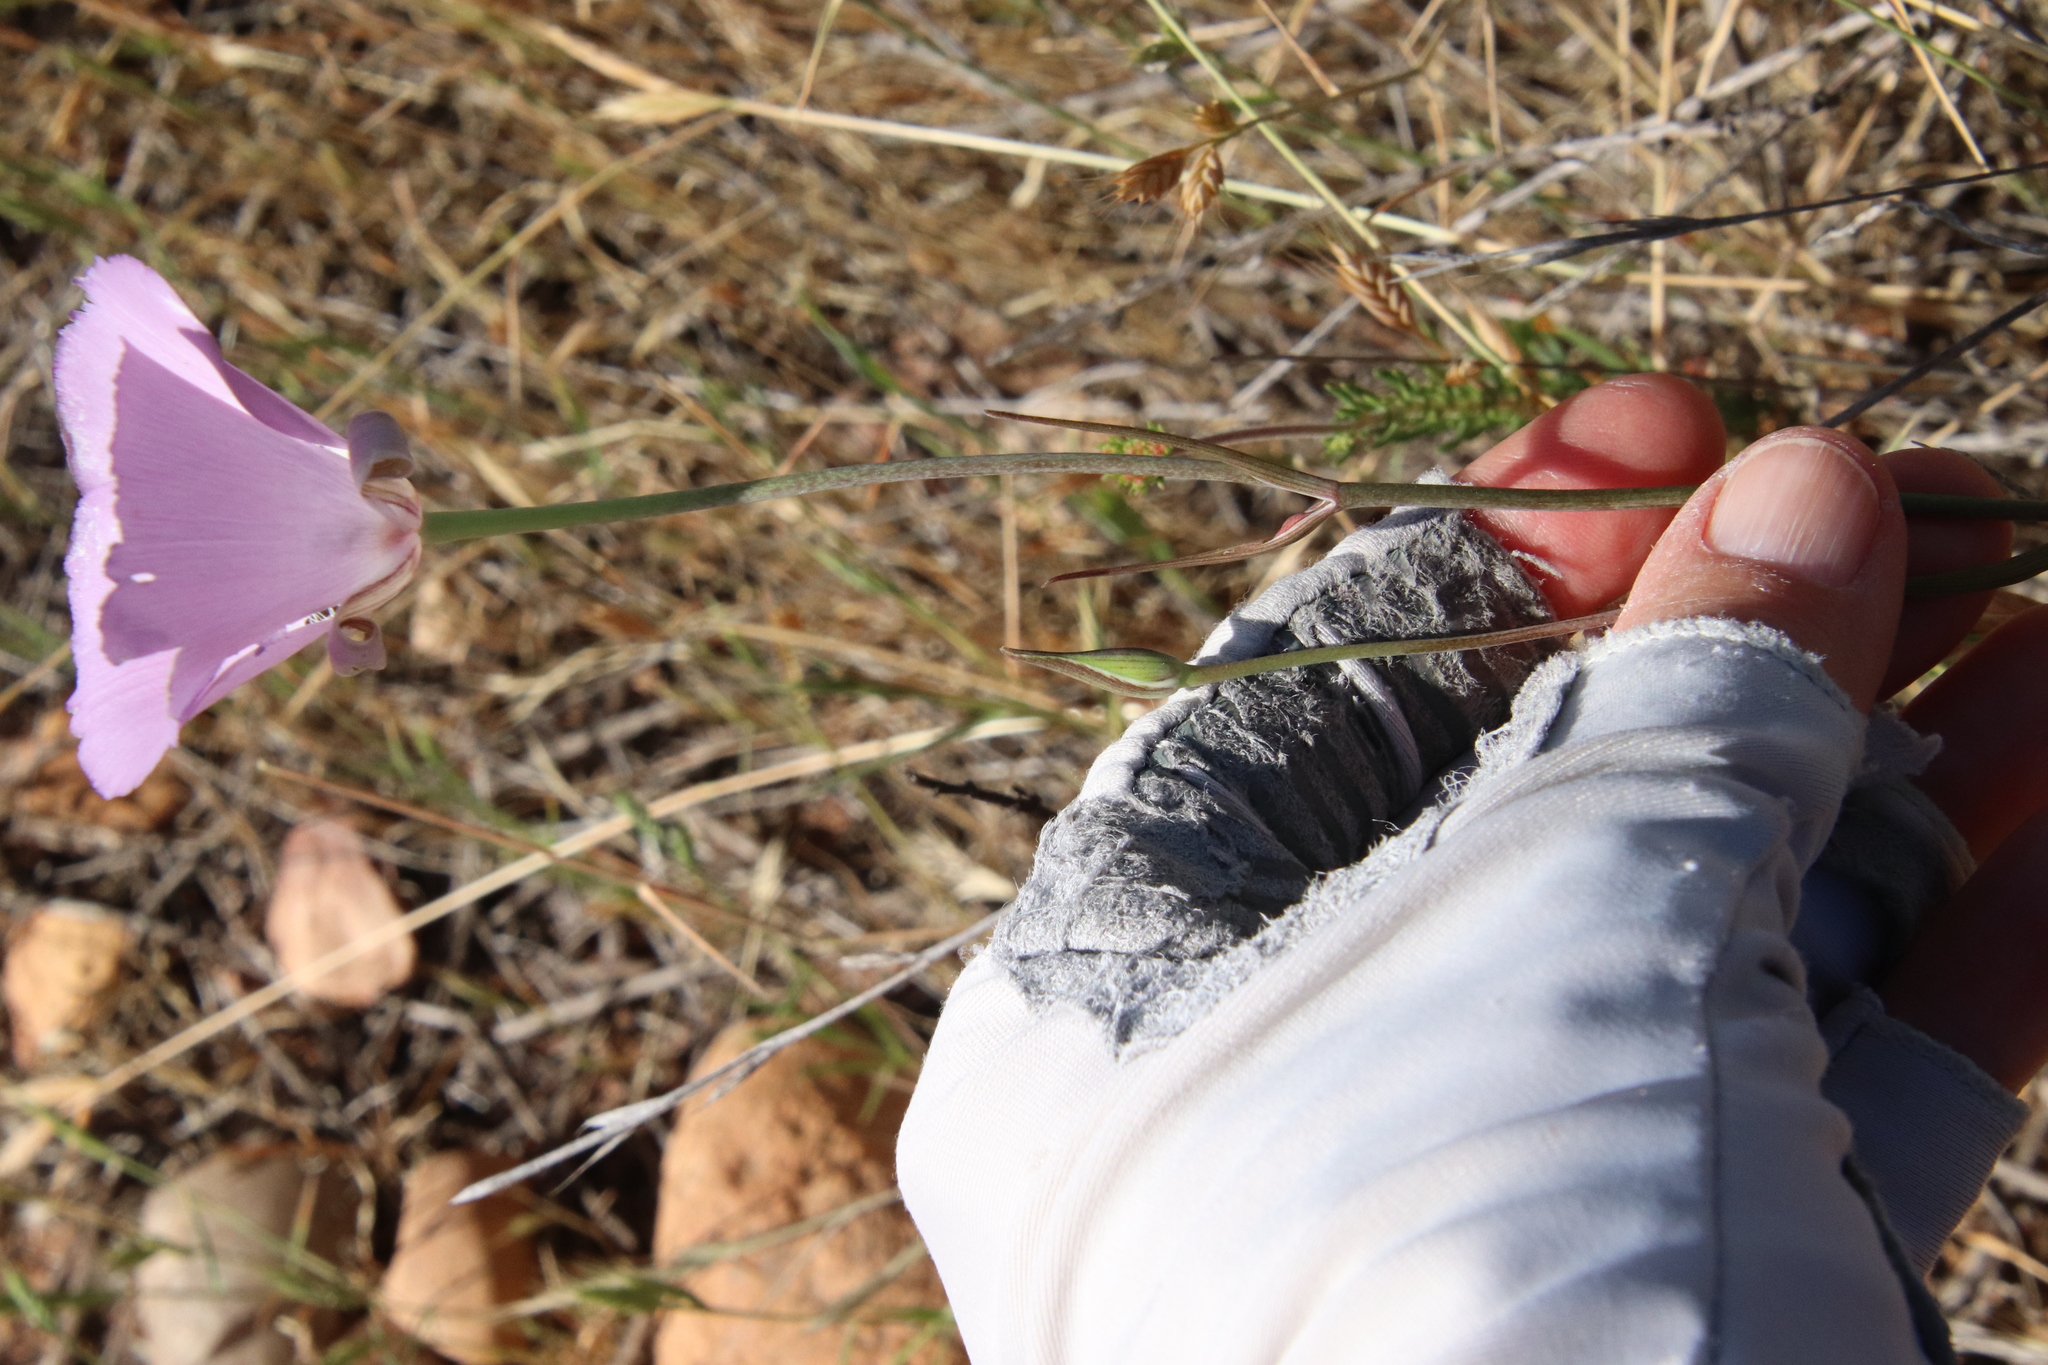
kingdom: Plantae
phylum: Tracheophyta
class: Liliopsida
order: Liliales
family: Liliaceae
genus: Calochortus
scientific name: Calochortus splendens
